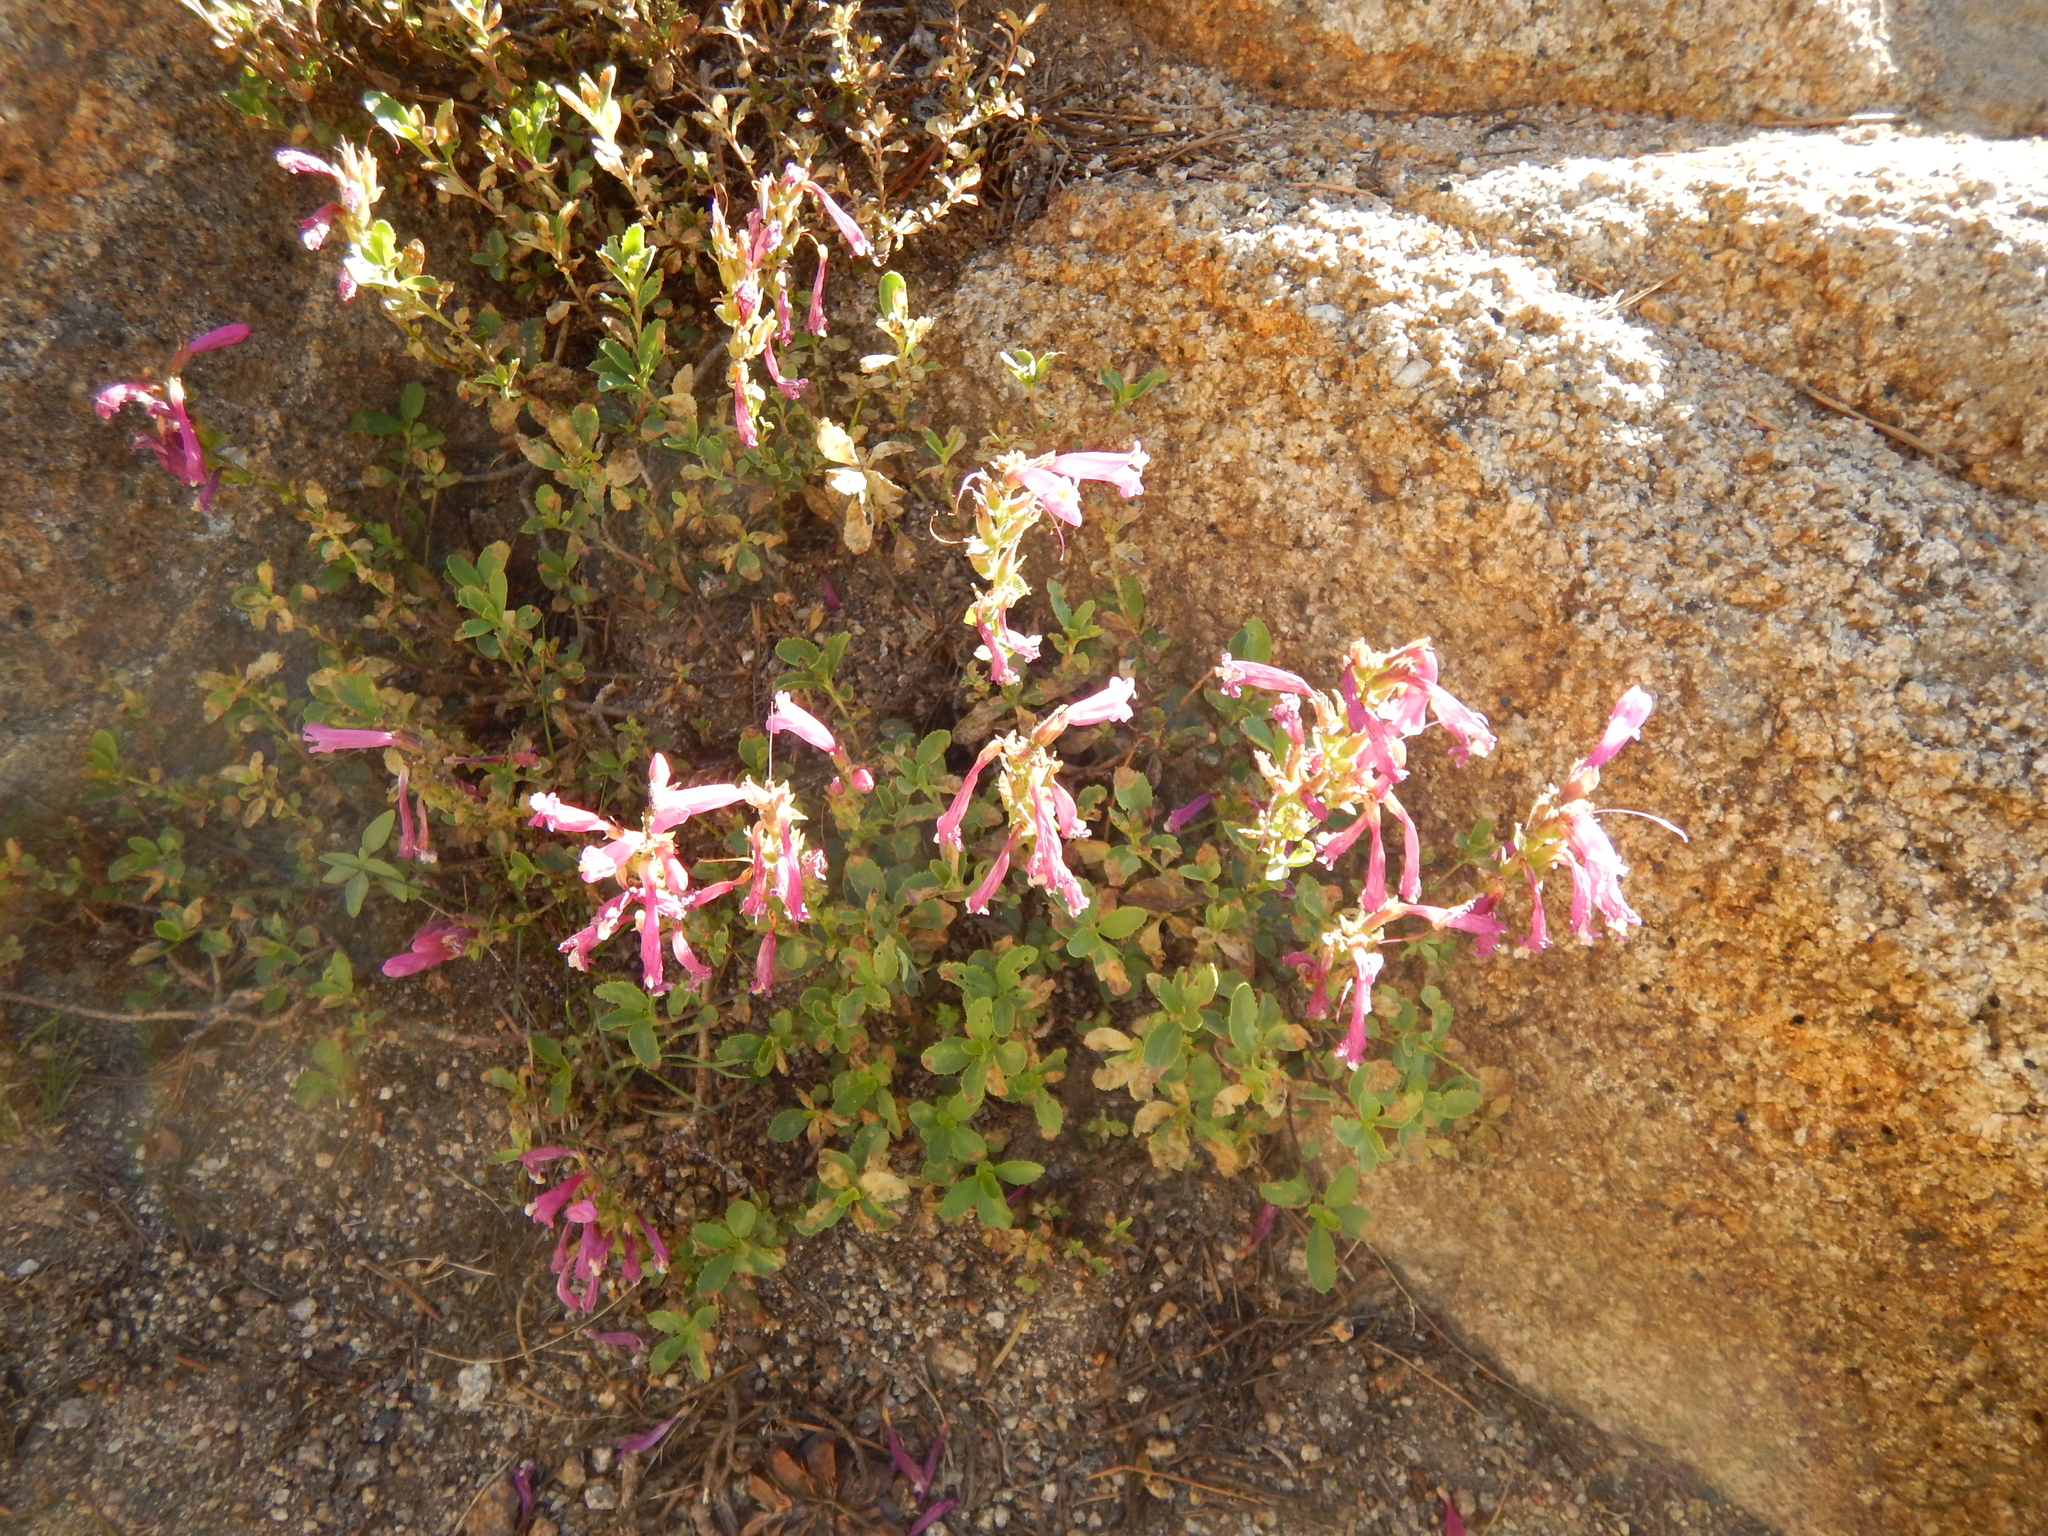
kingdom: Plantae
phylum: Tracheophyta
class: Magnoliopsida
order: Lamiales
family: Plantaginaceae
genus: Penstemon
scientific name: Penstemon newberryi
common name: Mountain-pride
